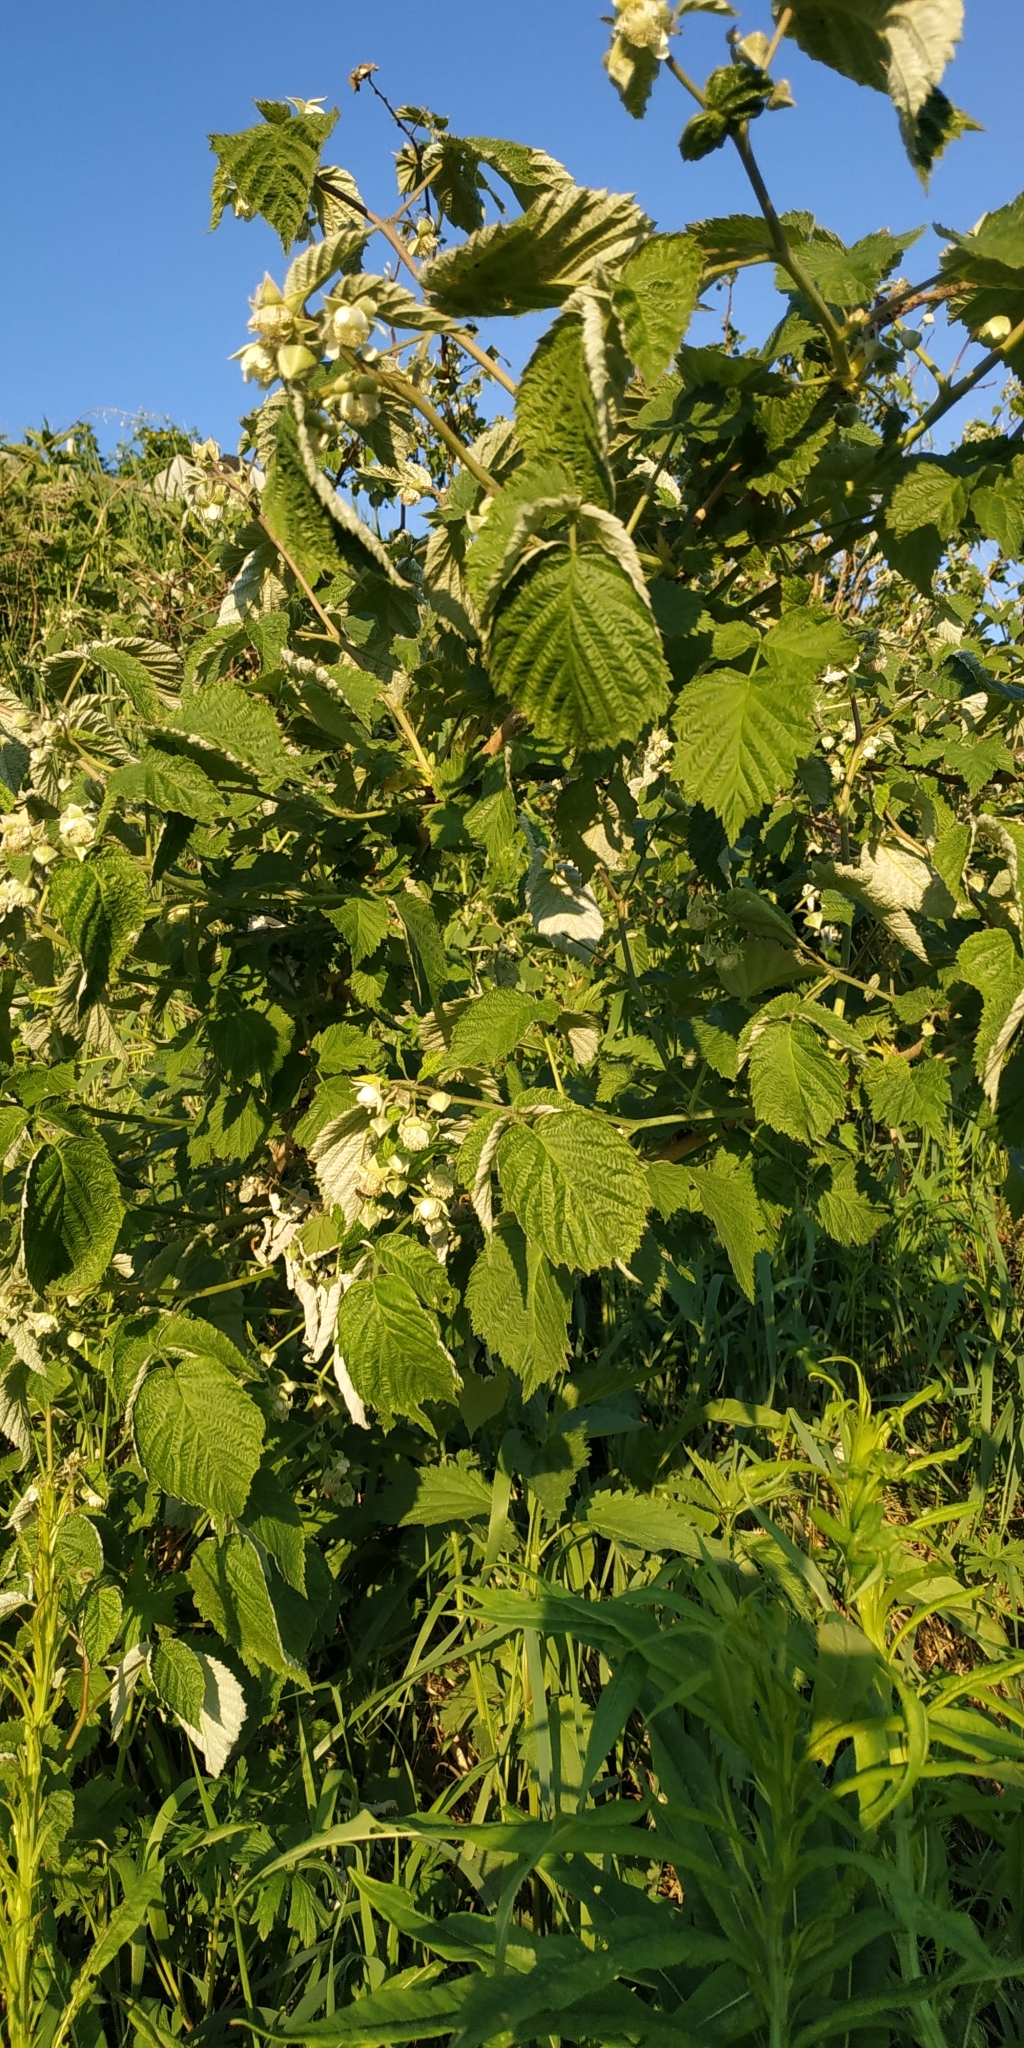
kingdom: Plantae
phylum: Tracheophyta
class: Magnoliopsida
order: Rosales
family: Rosaceae
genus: Rubus
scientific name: Rubus idaeus
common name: Raspberry
